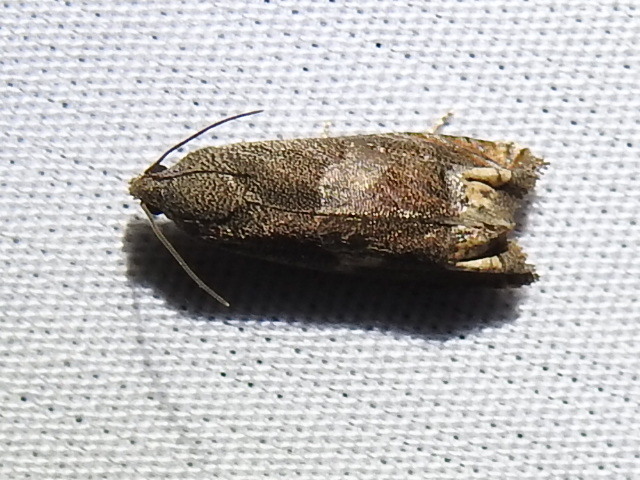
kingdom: Animalia
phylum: Arthropoda
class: Insecta
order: Lepidoptera
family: Tortricidae
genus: Epiblema
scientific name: Epiblema strenuana
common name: Ragweed borer moth
